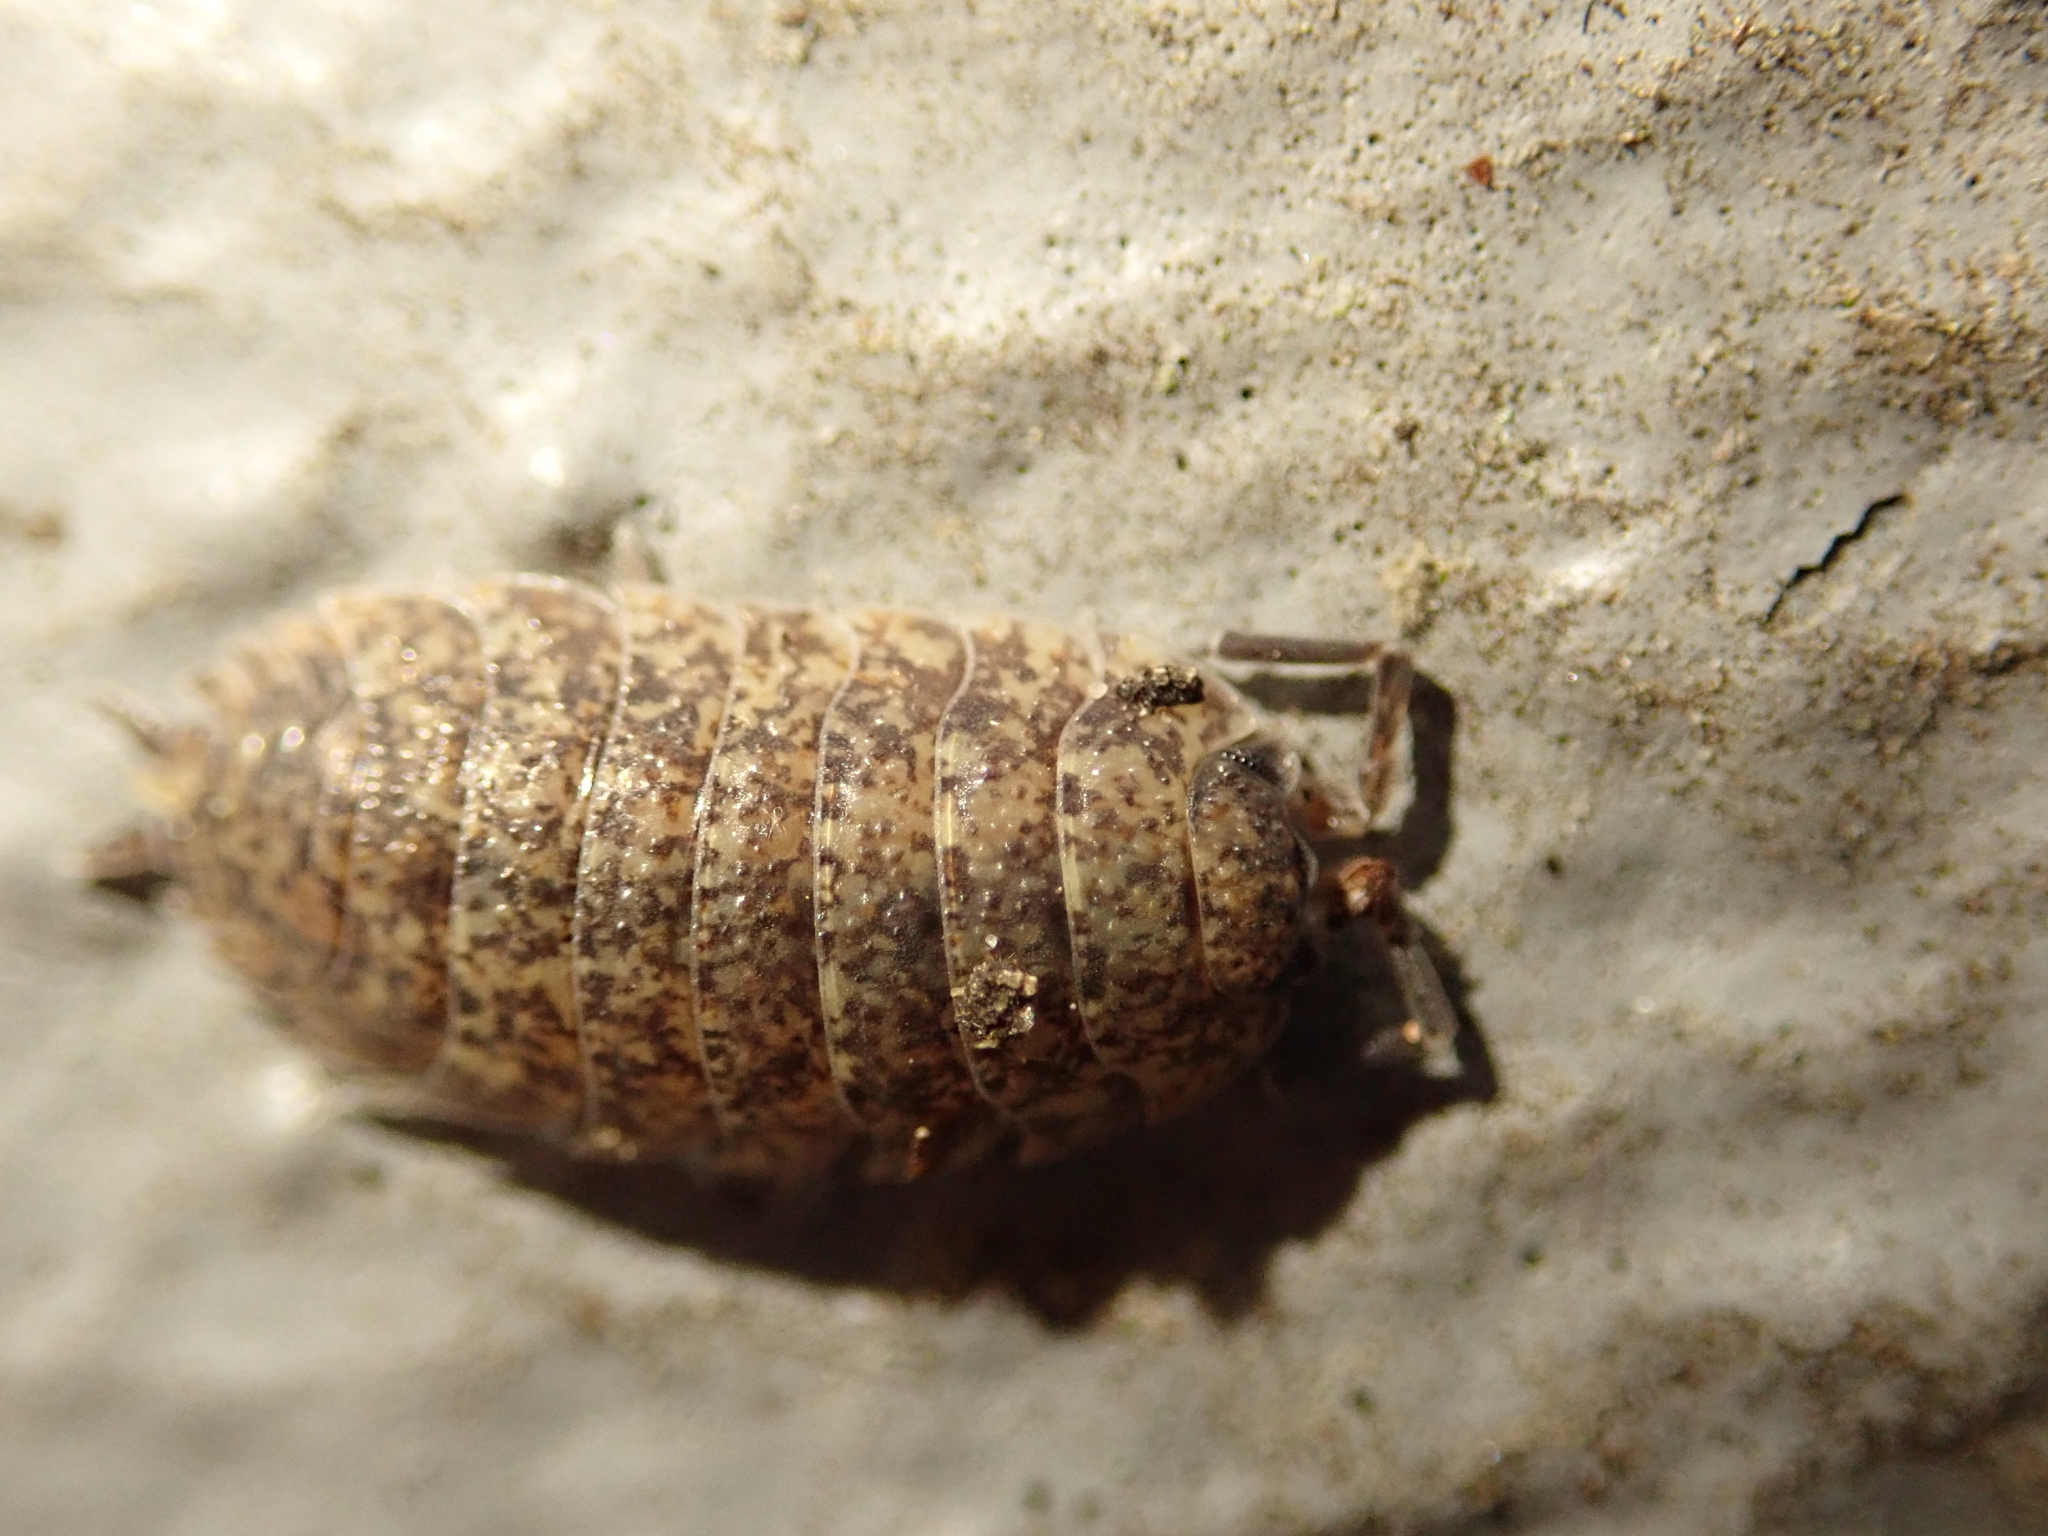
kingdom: Animalia
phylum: Arthropoda
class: Malacostraca
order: Isopoda
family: Porcellionidae
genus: Porcellio
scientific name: Porcellio scaber
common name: Common rough woodlouse
